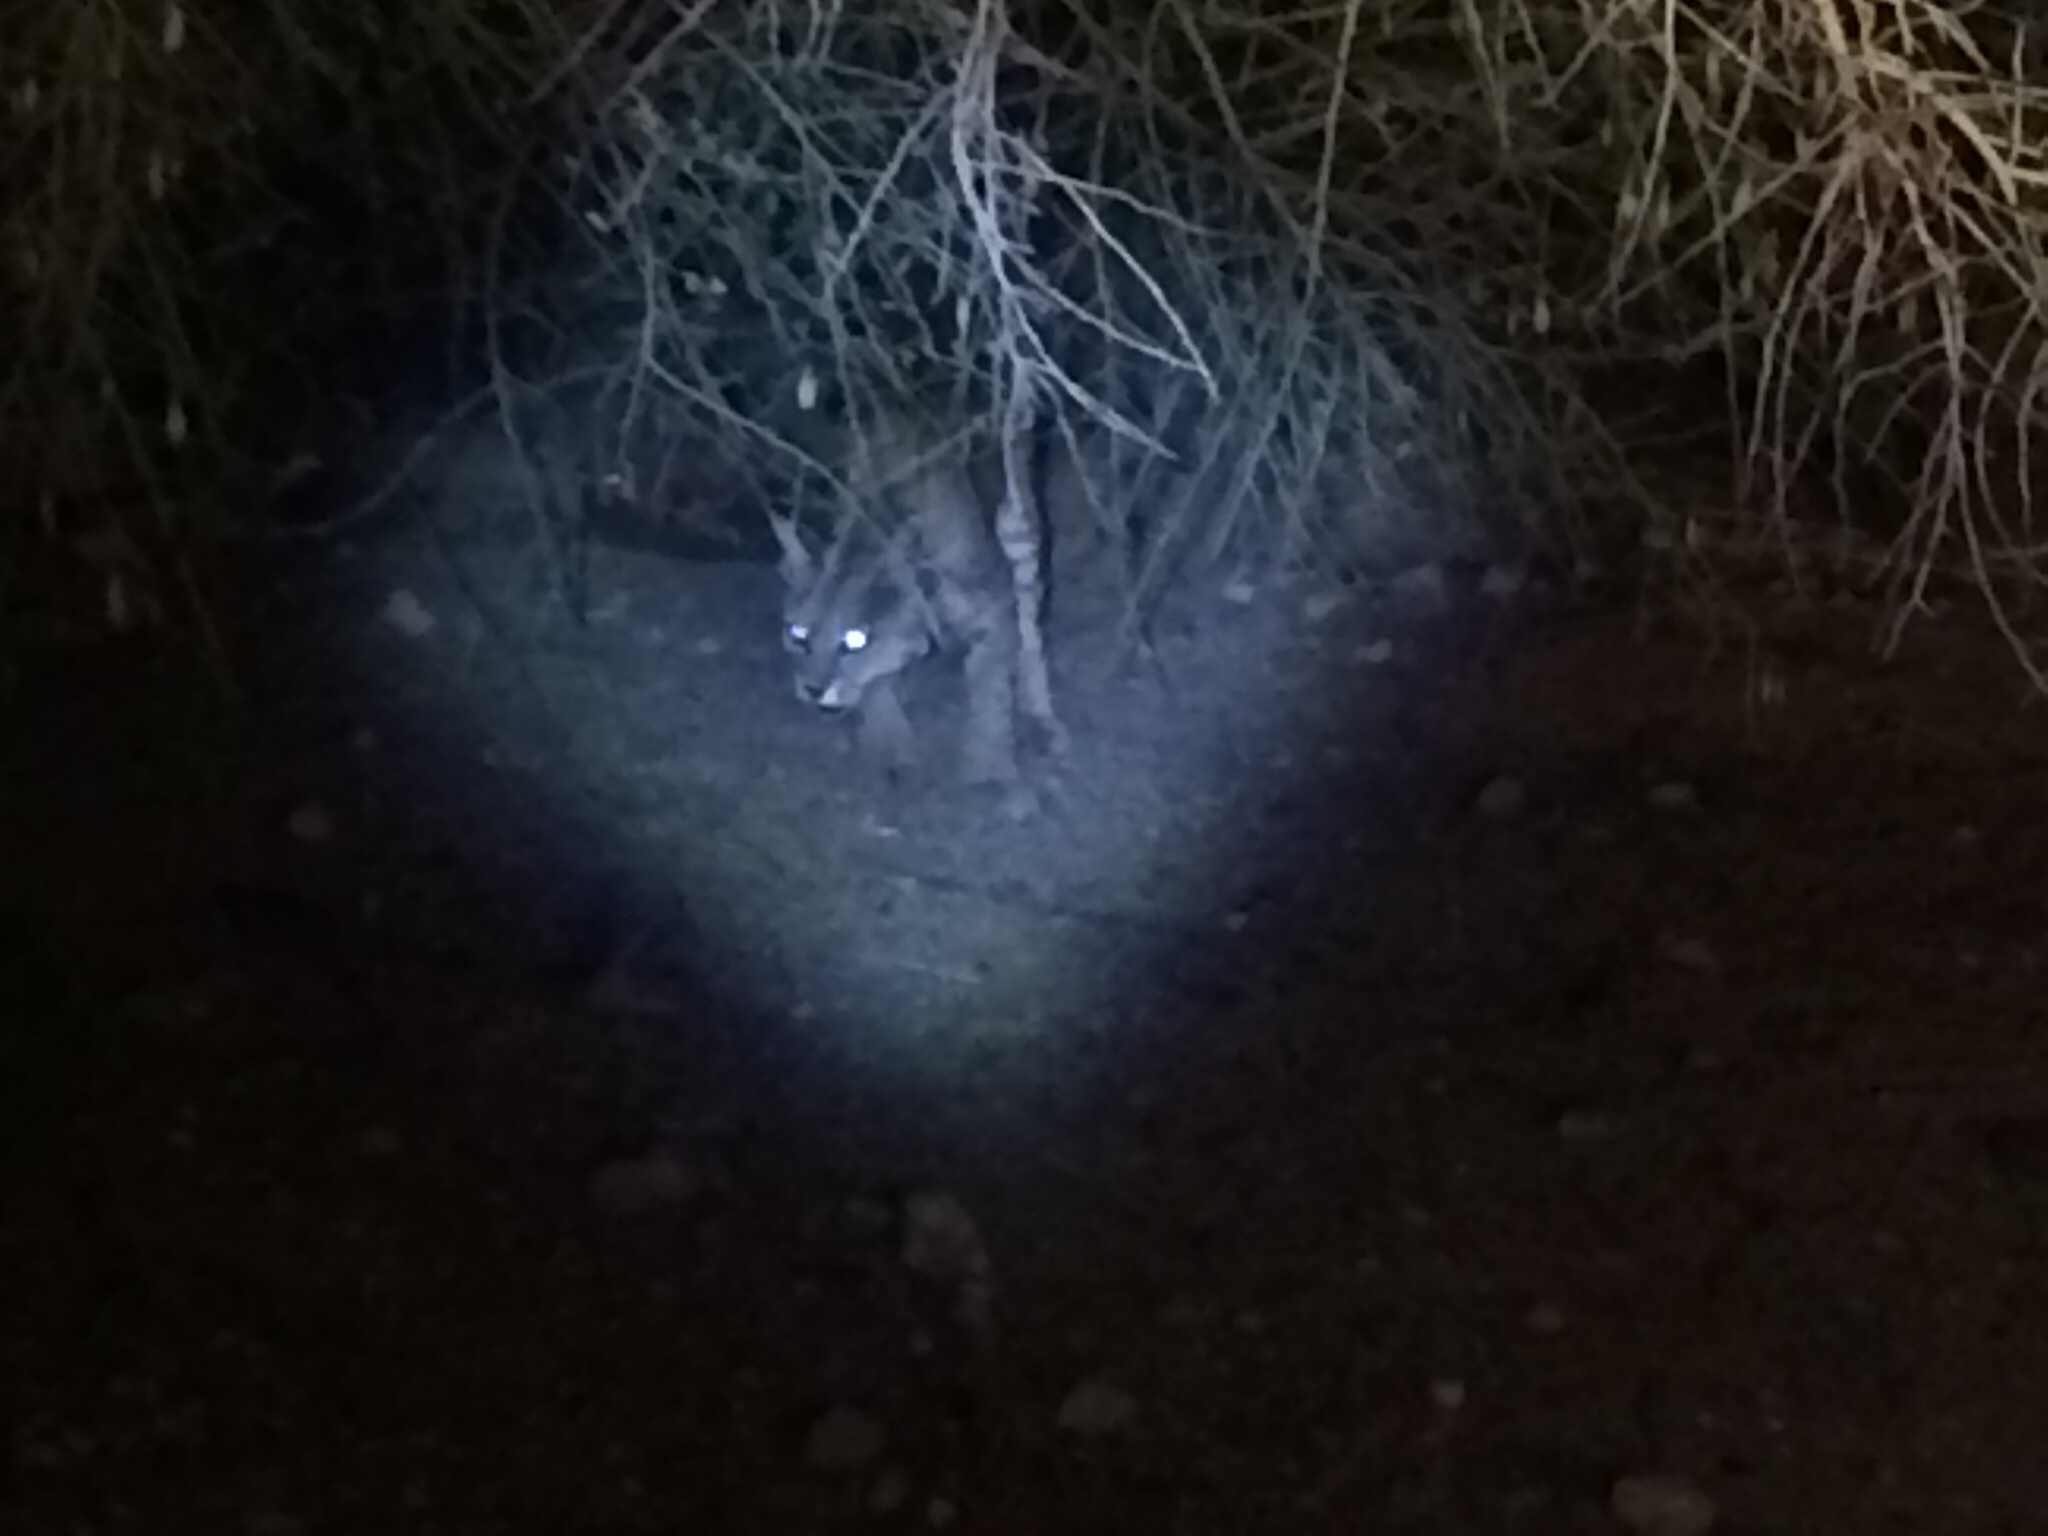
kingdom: Animalia
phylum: Chordata
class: Mammalia
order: Carnivora
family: Felidae
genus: Lynx
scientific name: Lynx rufus
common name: Bobcat
